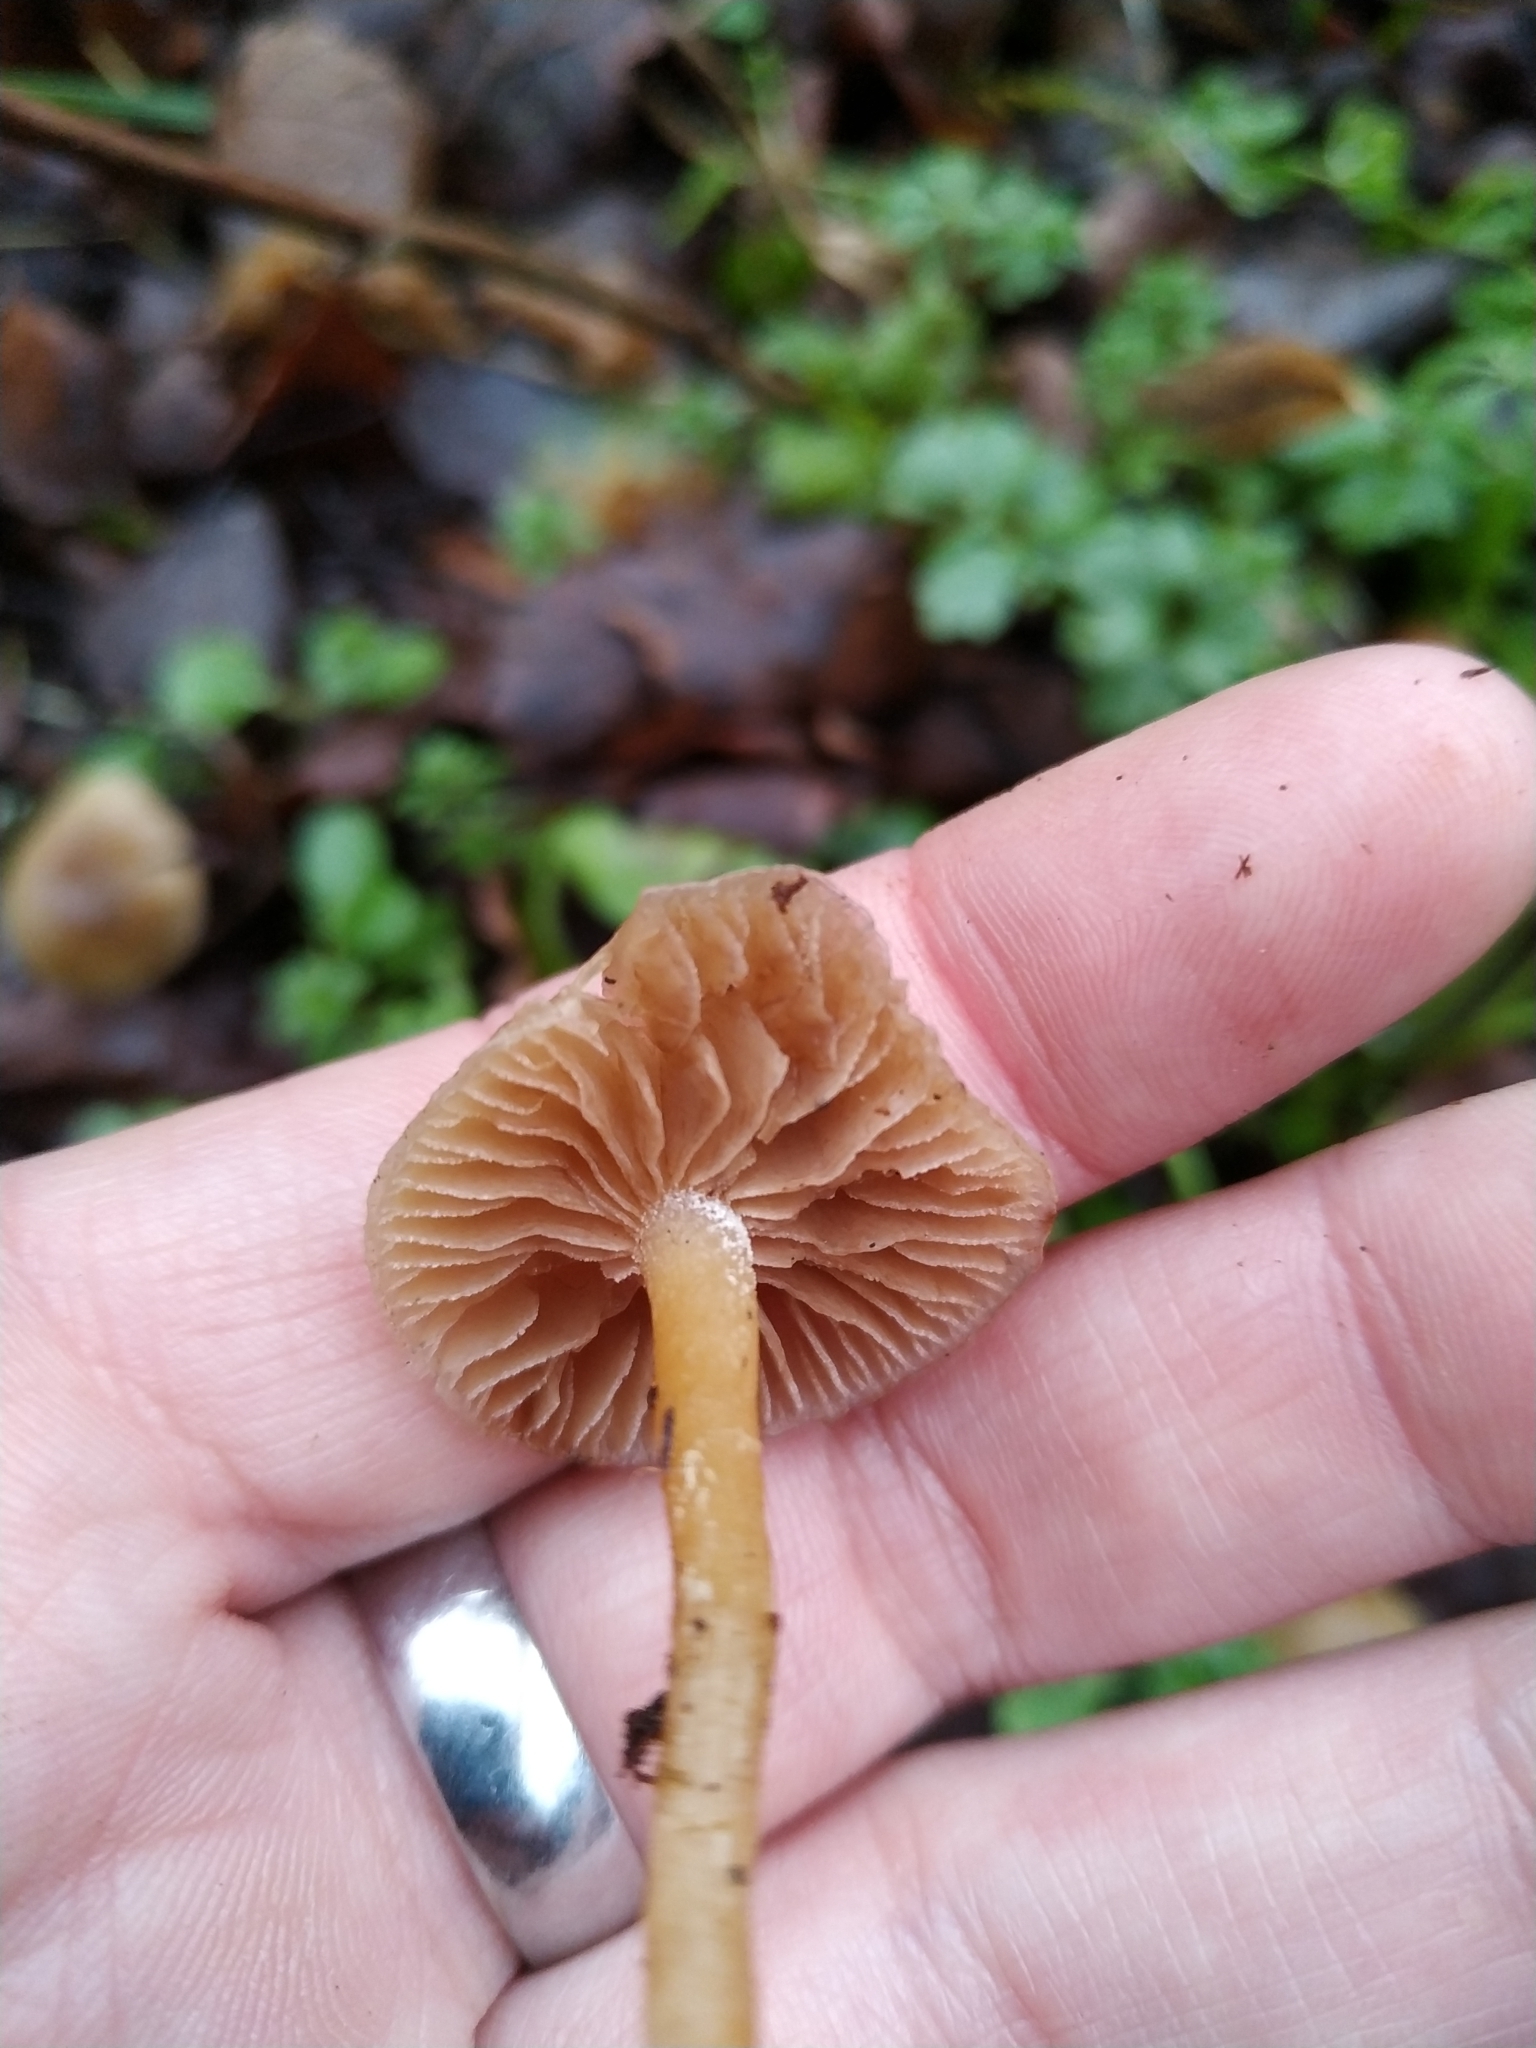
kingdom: Fungi
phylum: Basidiomycota
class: Agaricomycetes
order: Agaricales
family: Strophariaceae
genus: Meottomyces
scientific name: Meottomyces dissimulans
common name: Winter brownie
